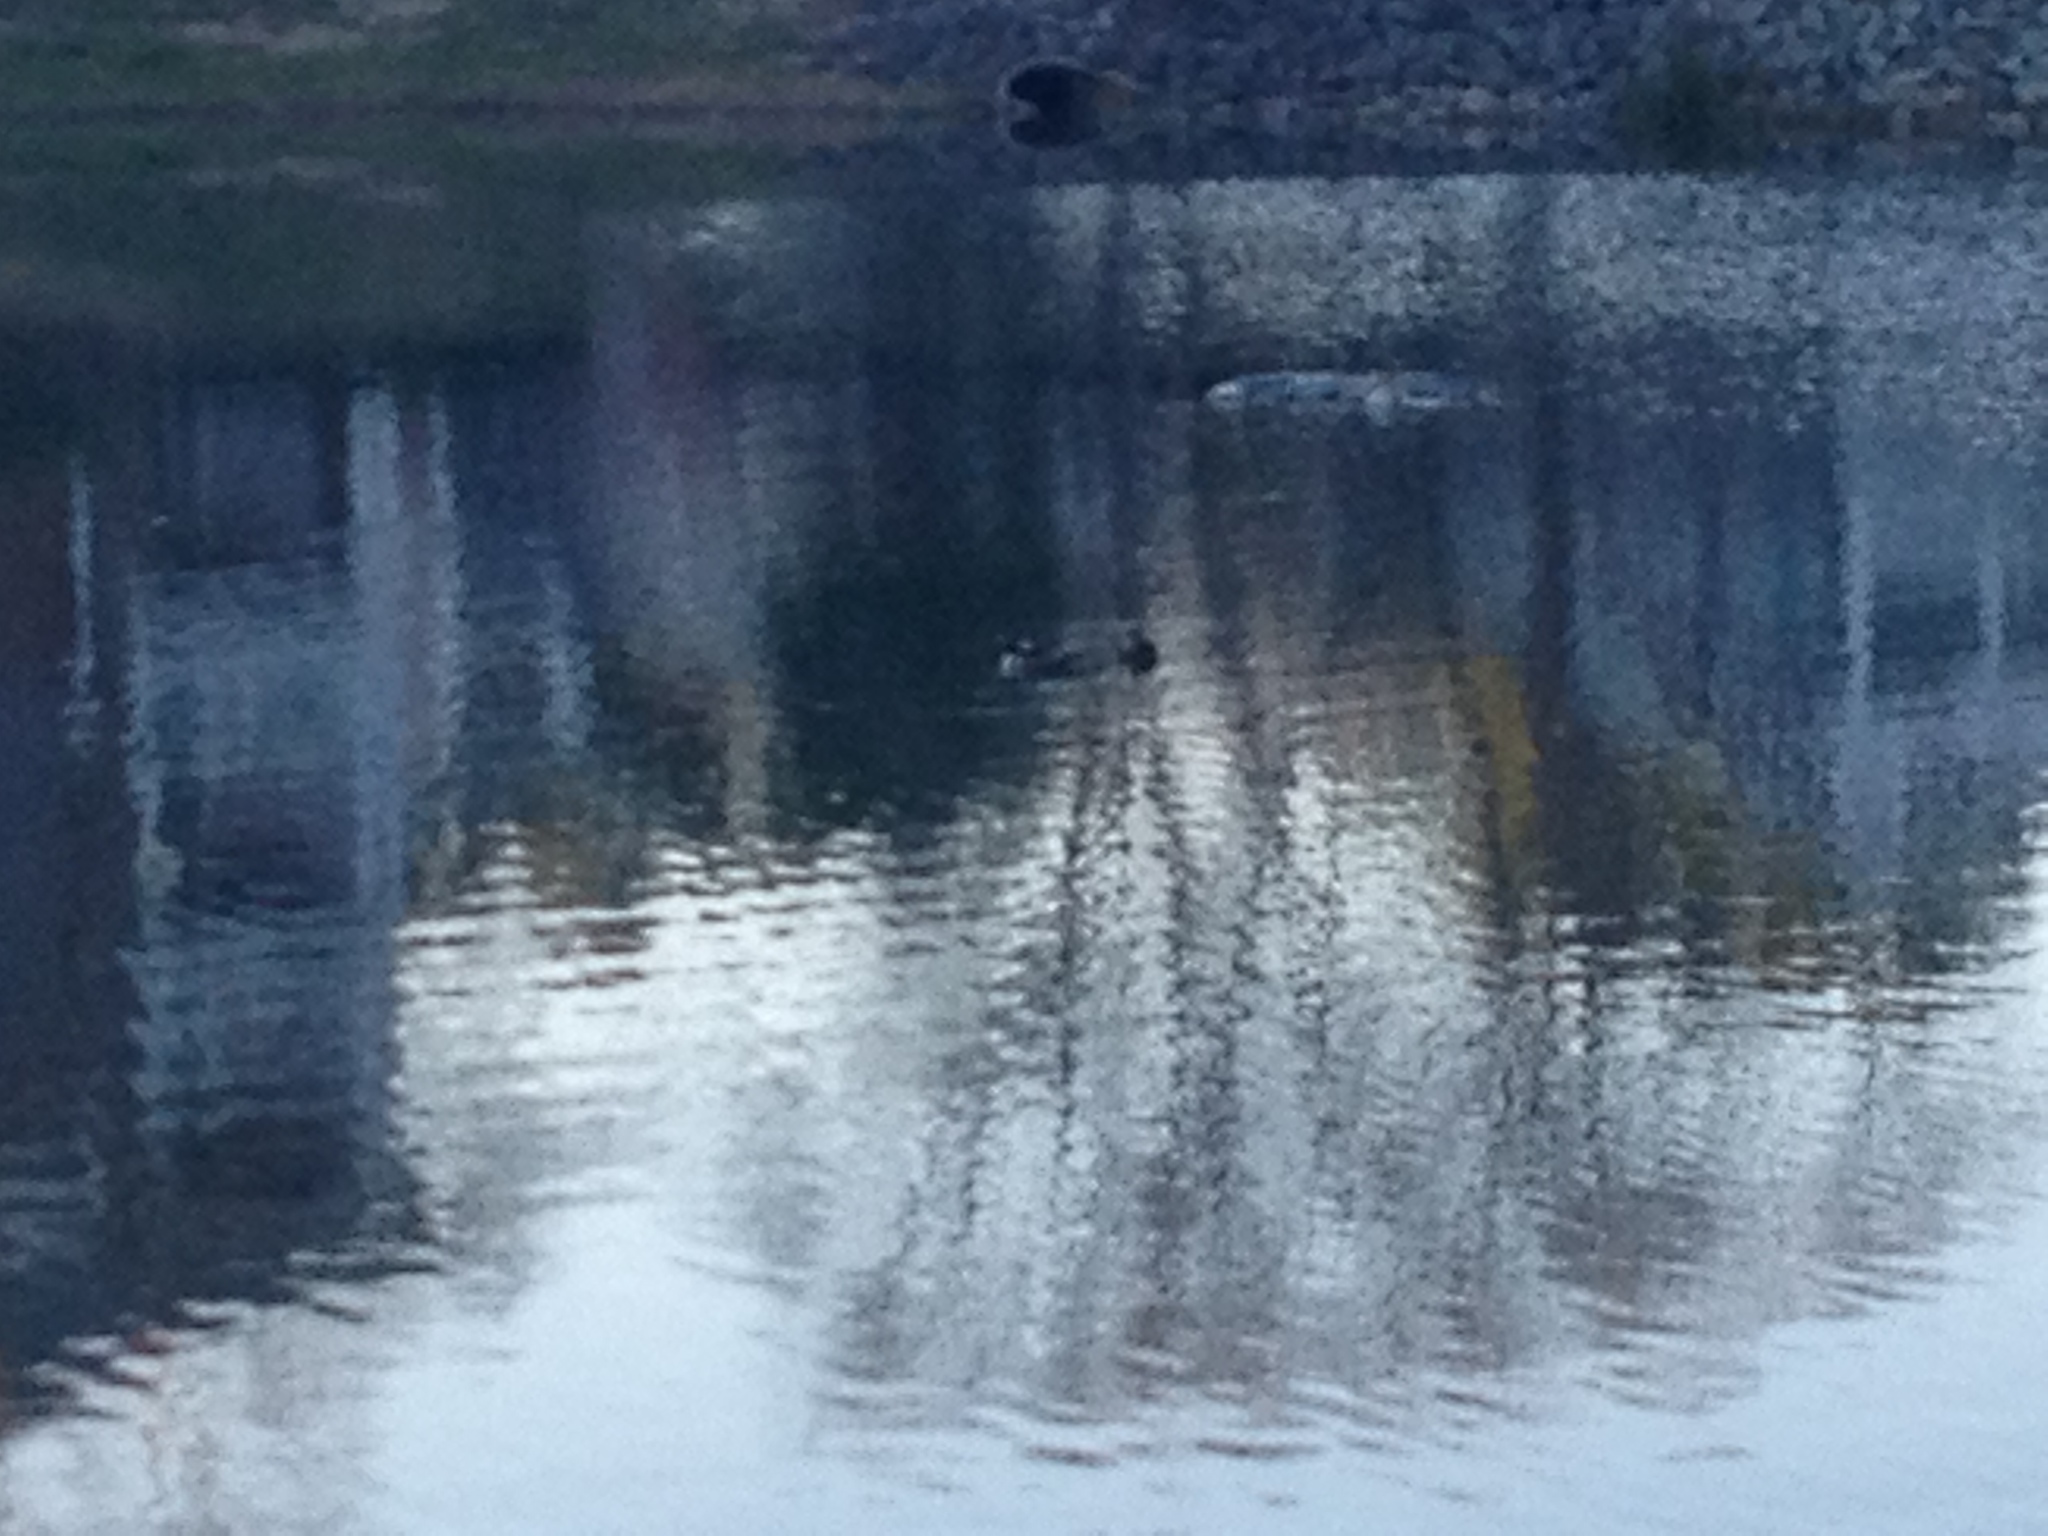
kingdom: Animalia
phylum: Chordata
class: Aves
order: Anseriformes
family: Anatidae
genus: Lophodytes
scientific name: Lophodytes cucullatus
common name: Hooded merganser
